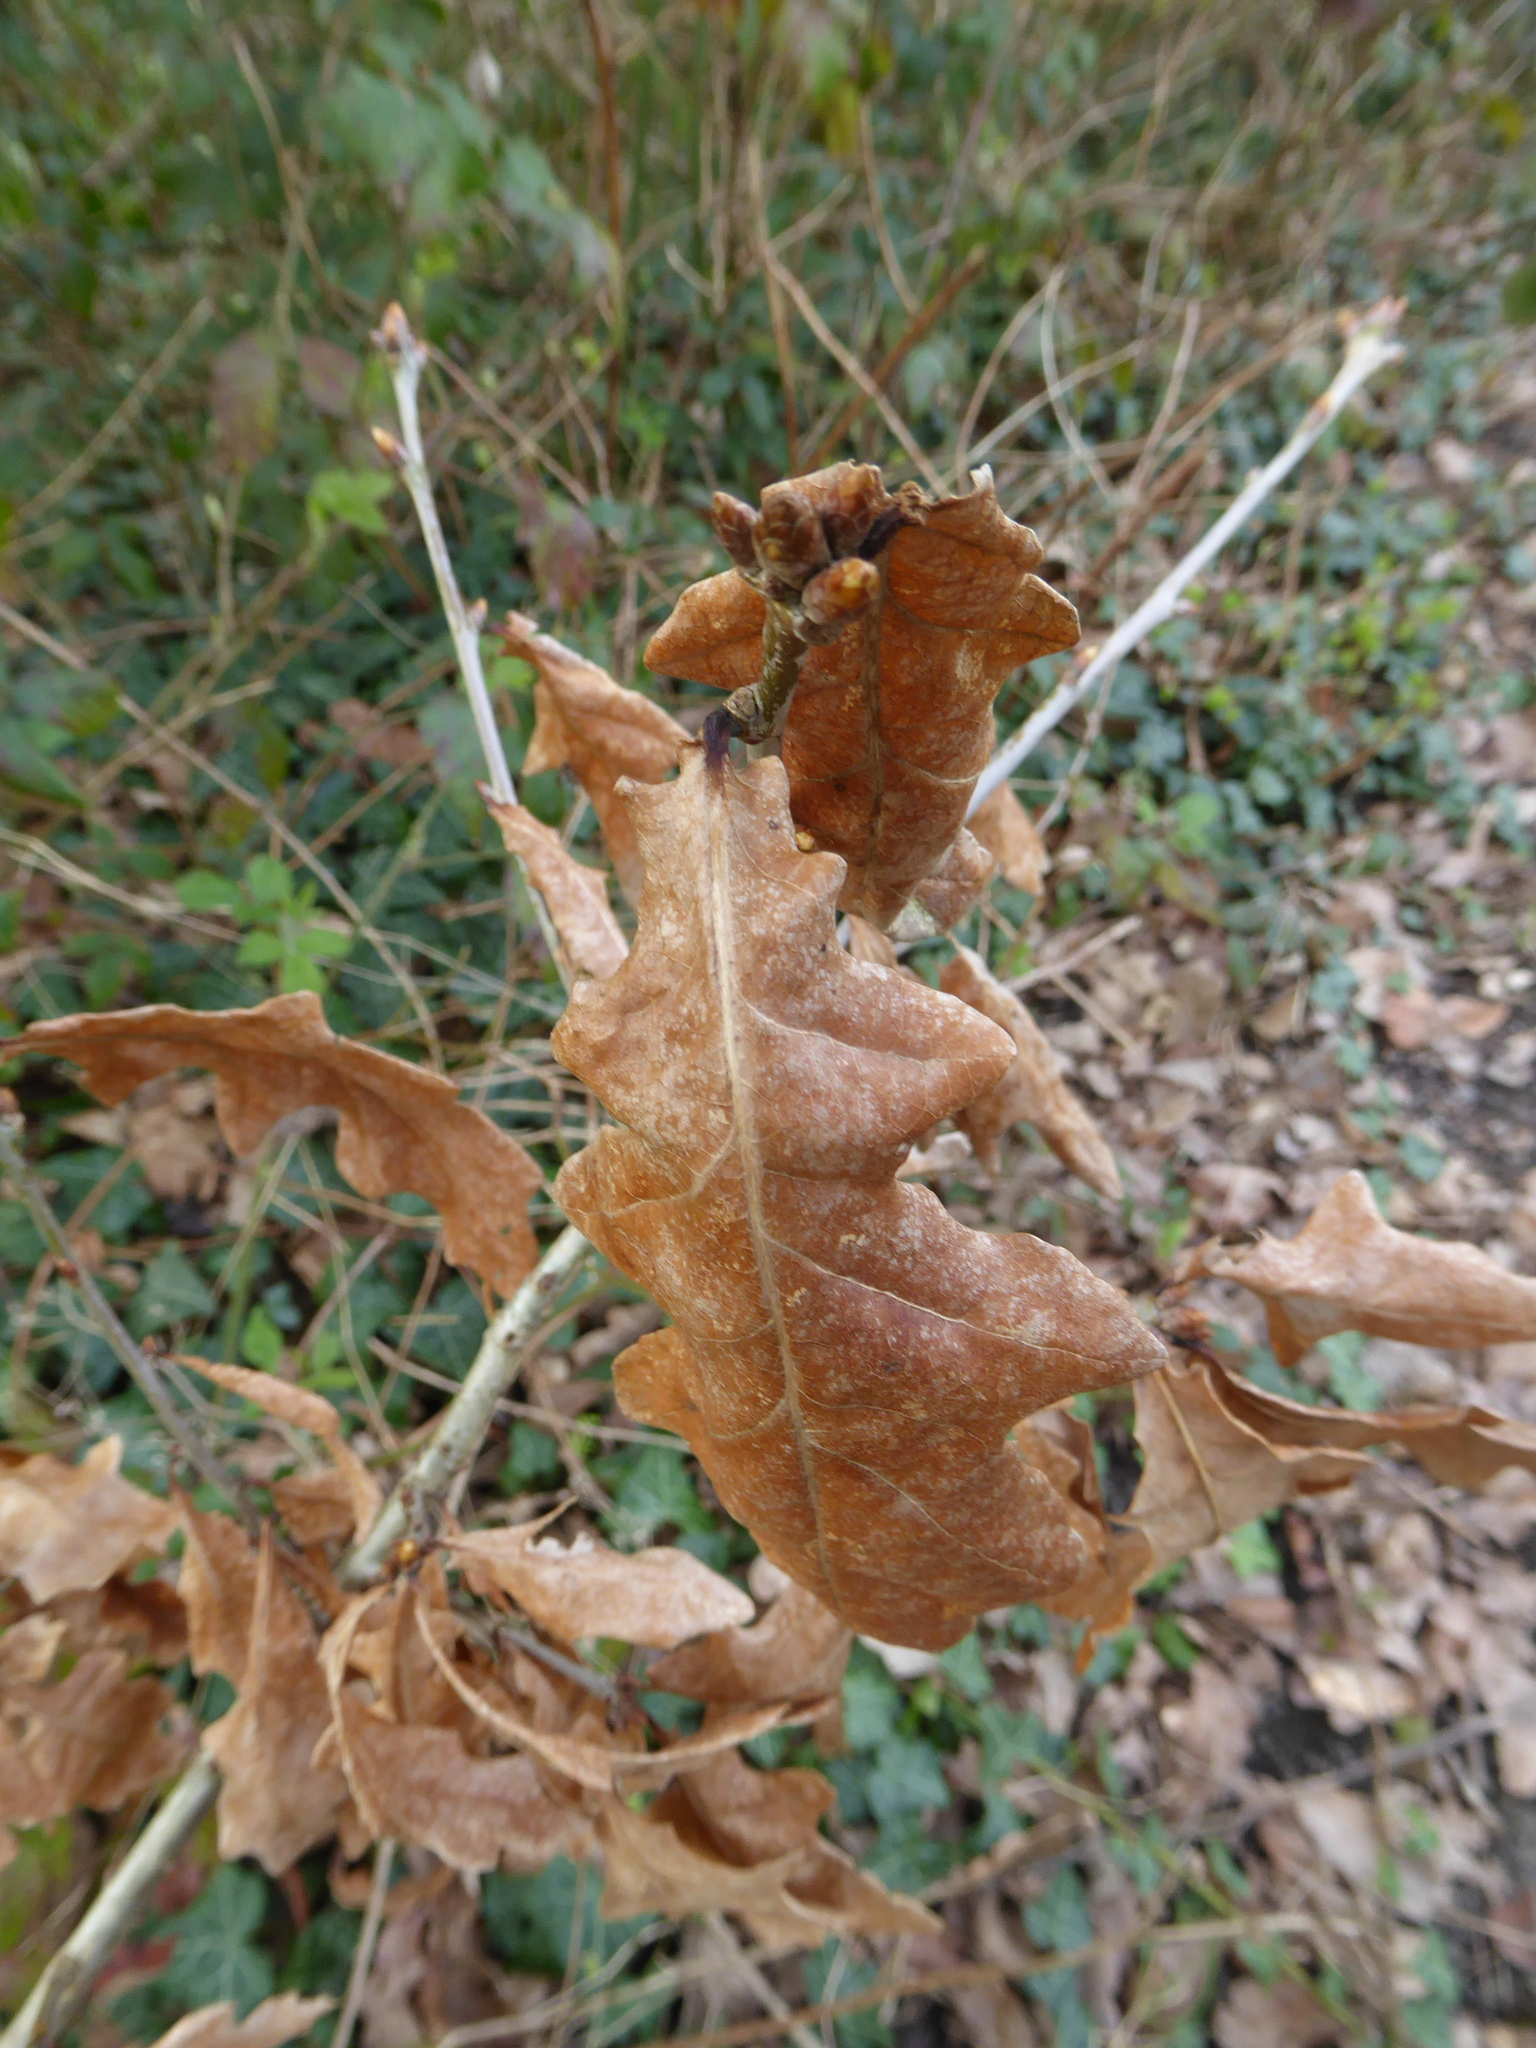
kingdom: Plantae
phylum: Tracheophyta
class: Magnoliopsida
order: Fagales
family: Fagaceae
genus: Quercus
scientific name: Quercus robur
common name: Pedunculate oak
